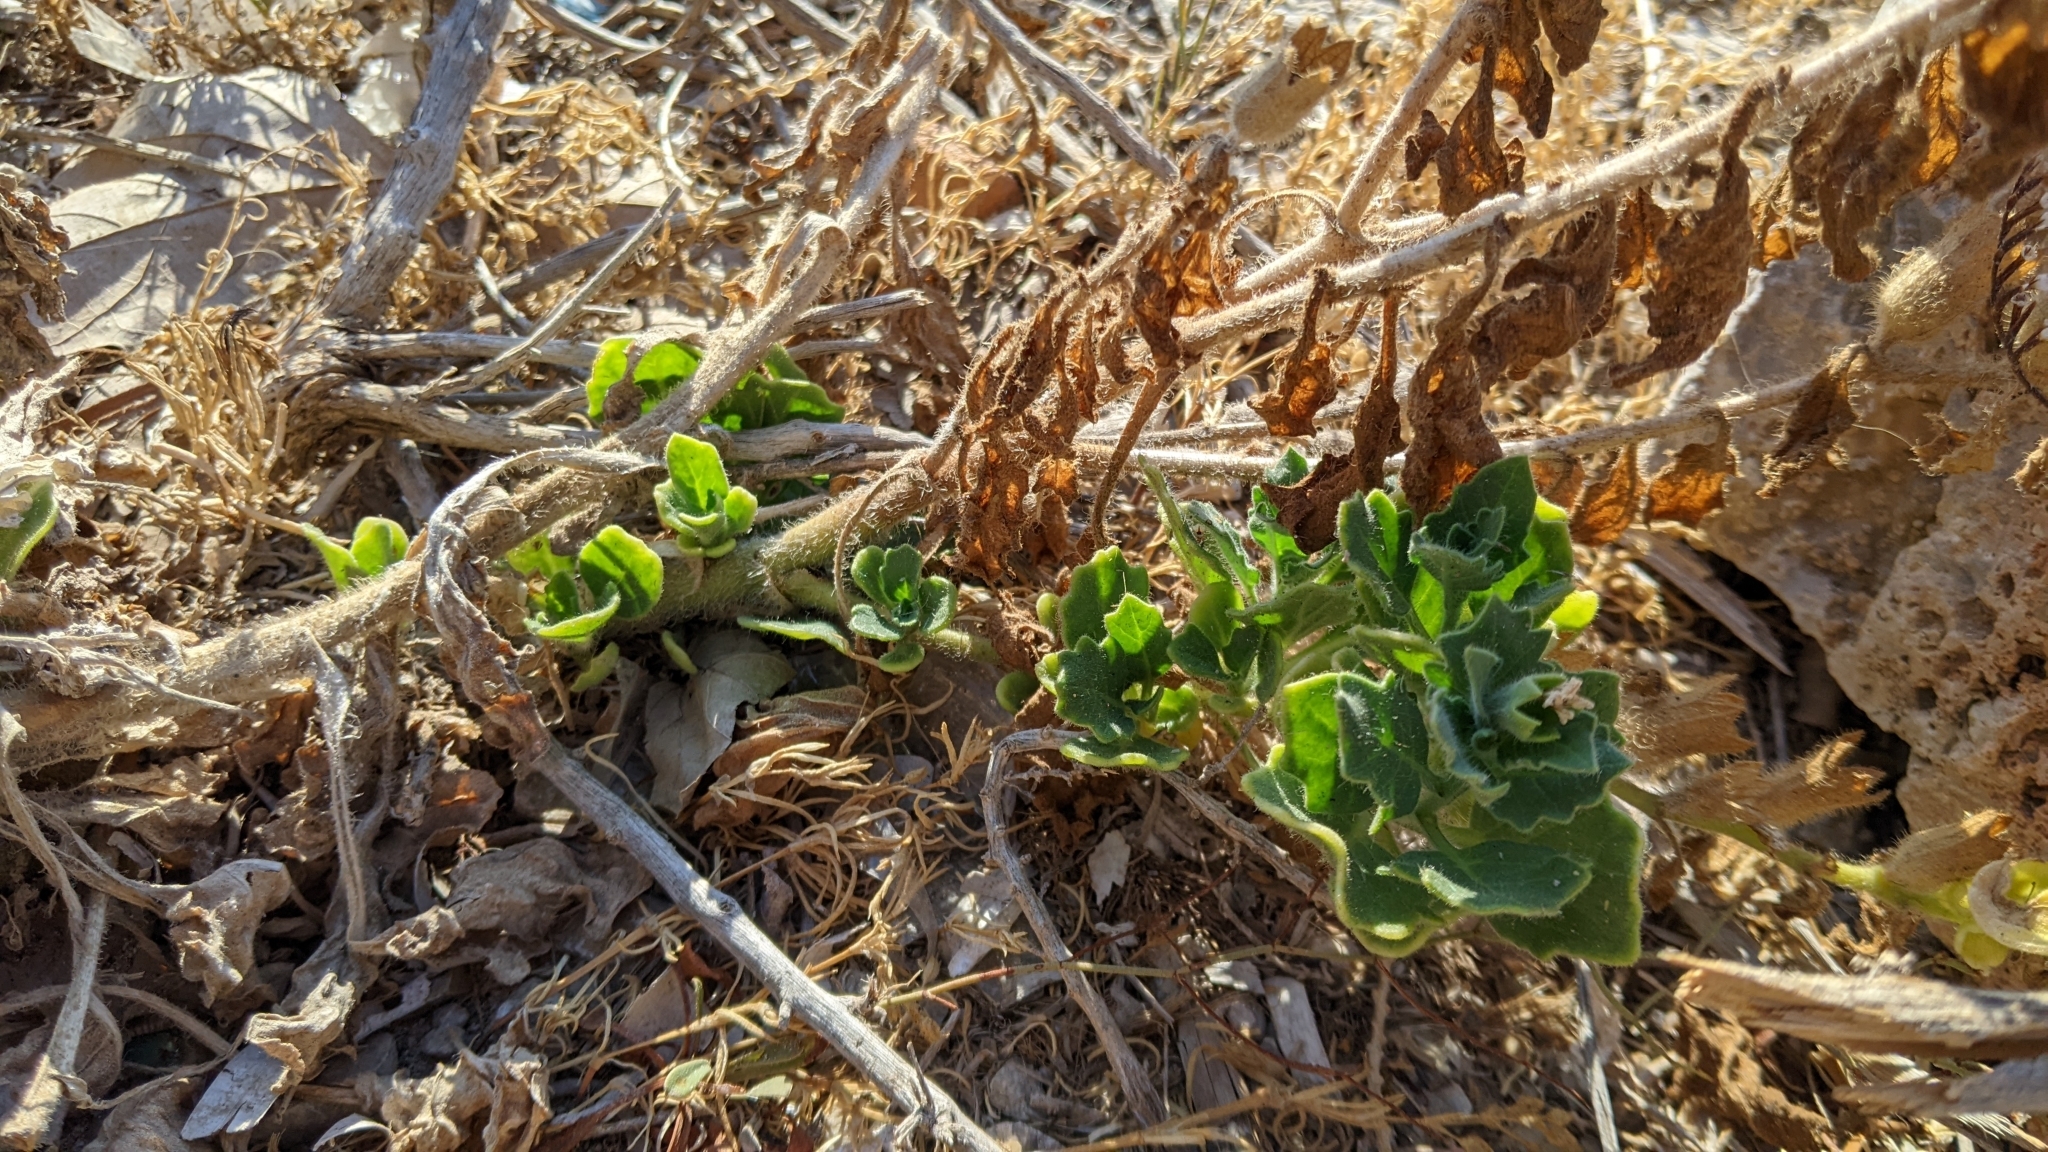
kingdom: Plantae
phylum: Tracheophyta
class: Magnoliopsida
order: Solanales
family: Solanaceae
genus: Hyoscyamus
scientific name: Hyoscyamus albus
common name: White henbane
